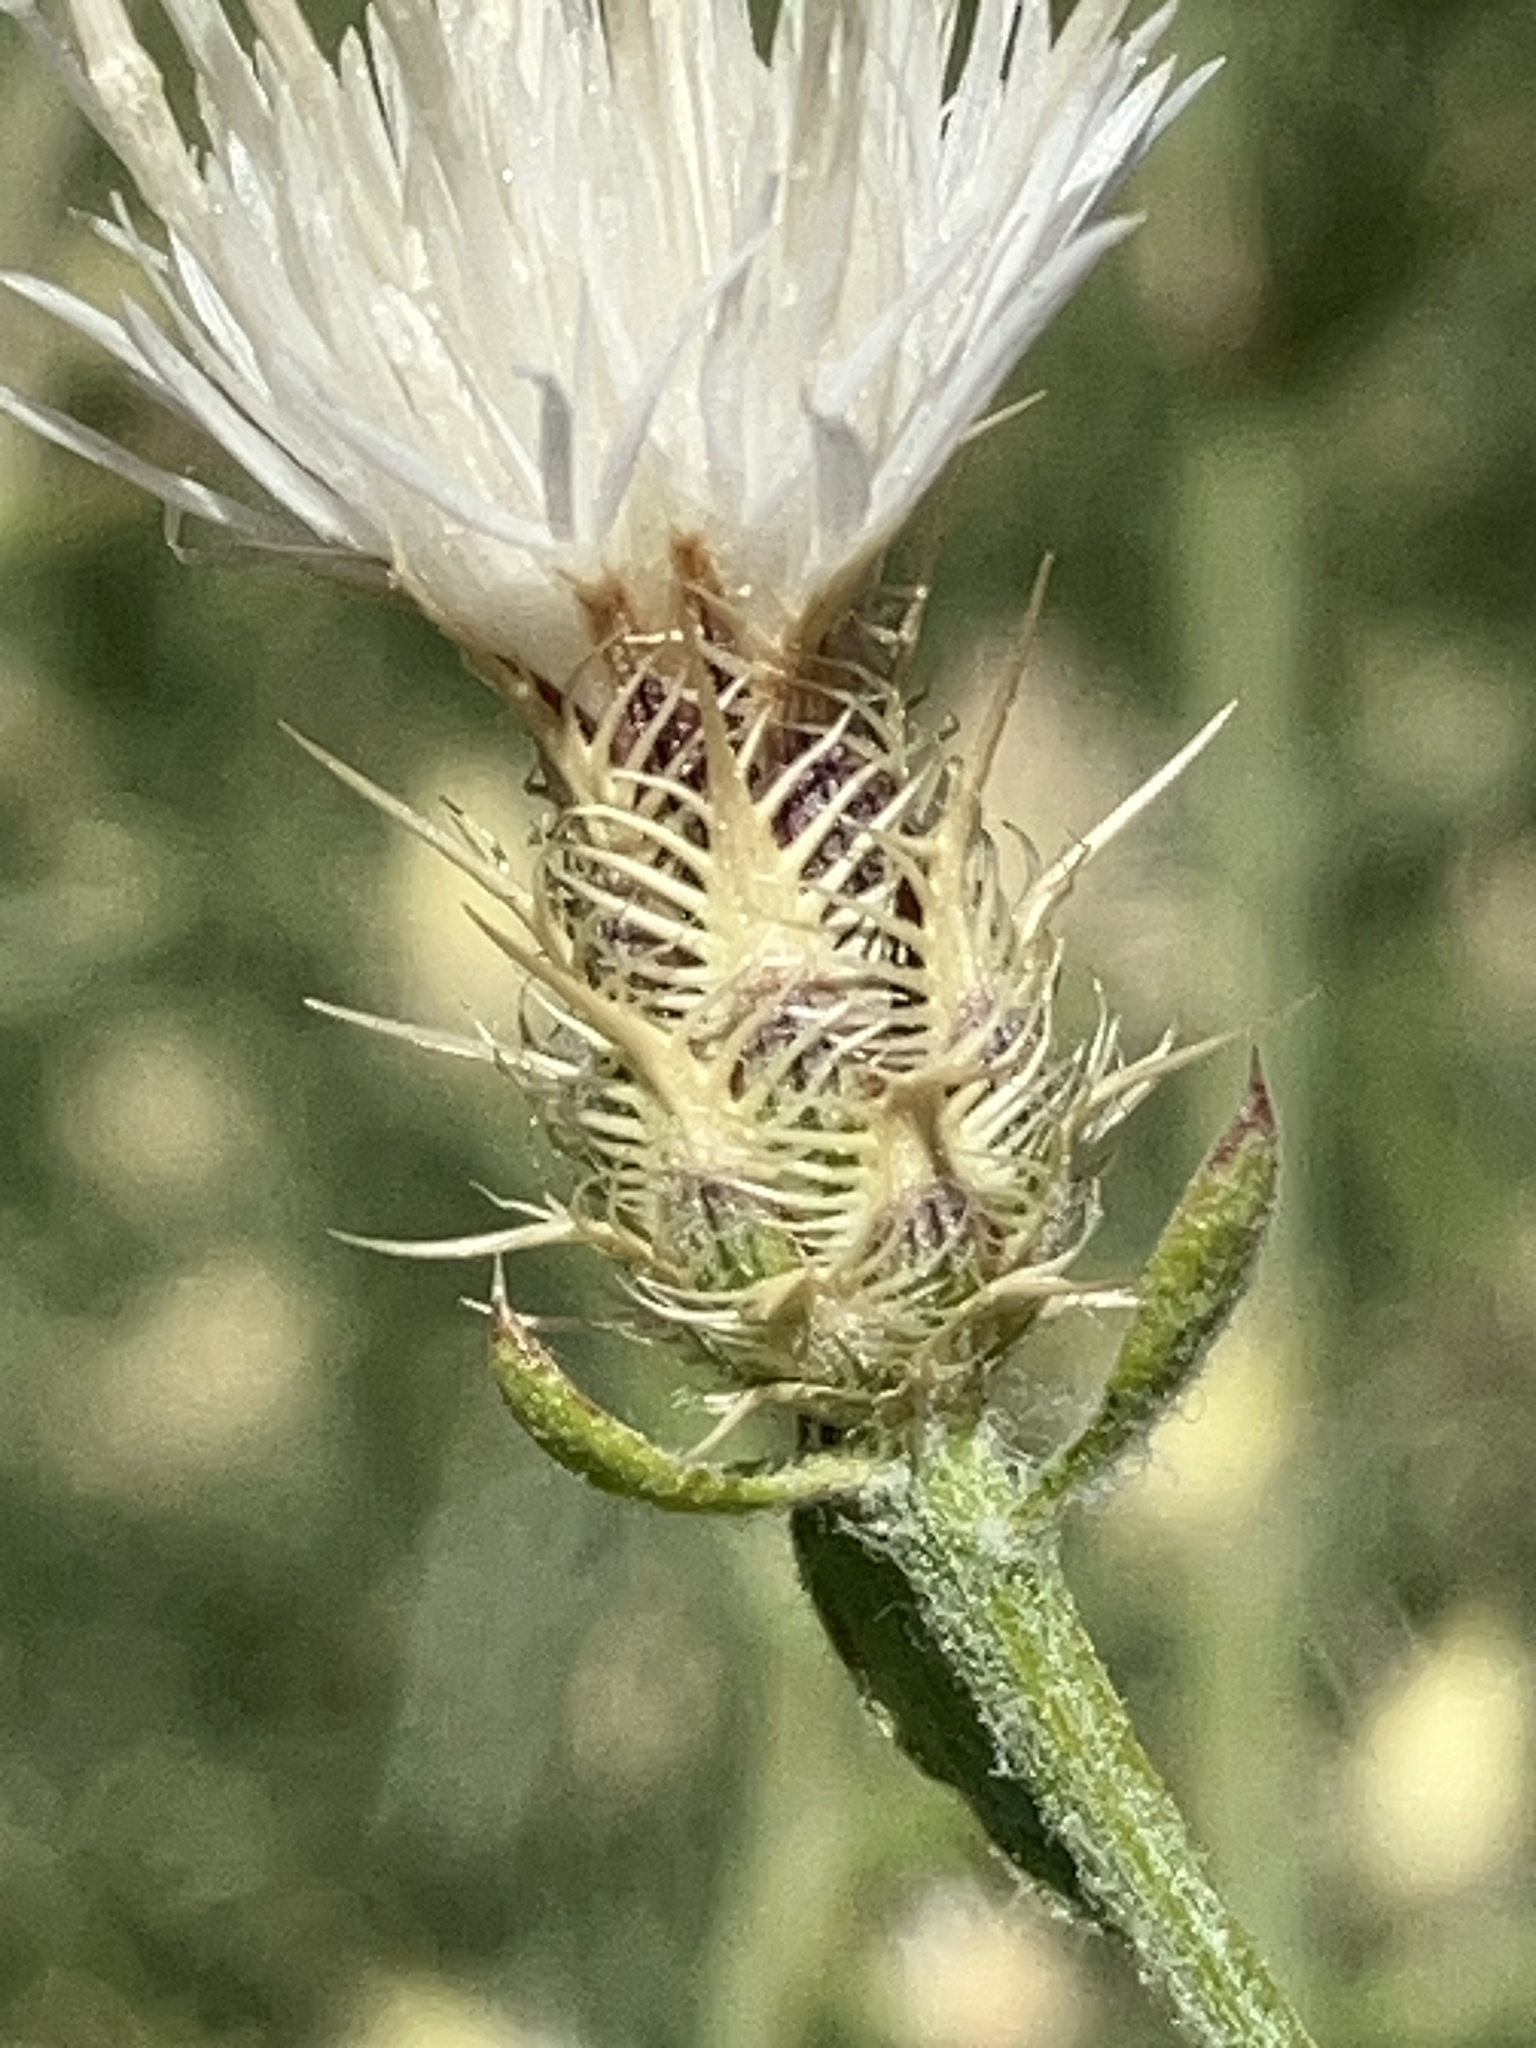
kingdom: Plantae
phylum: Tracheophyta
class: Magnoliopsida
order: Asterales
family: Asteraceae
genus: Centaurea
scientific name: Centaurea diffusa
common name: Diffuse knapweed
